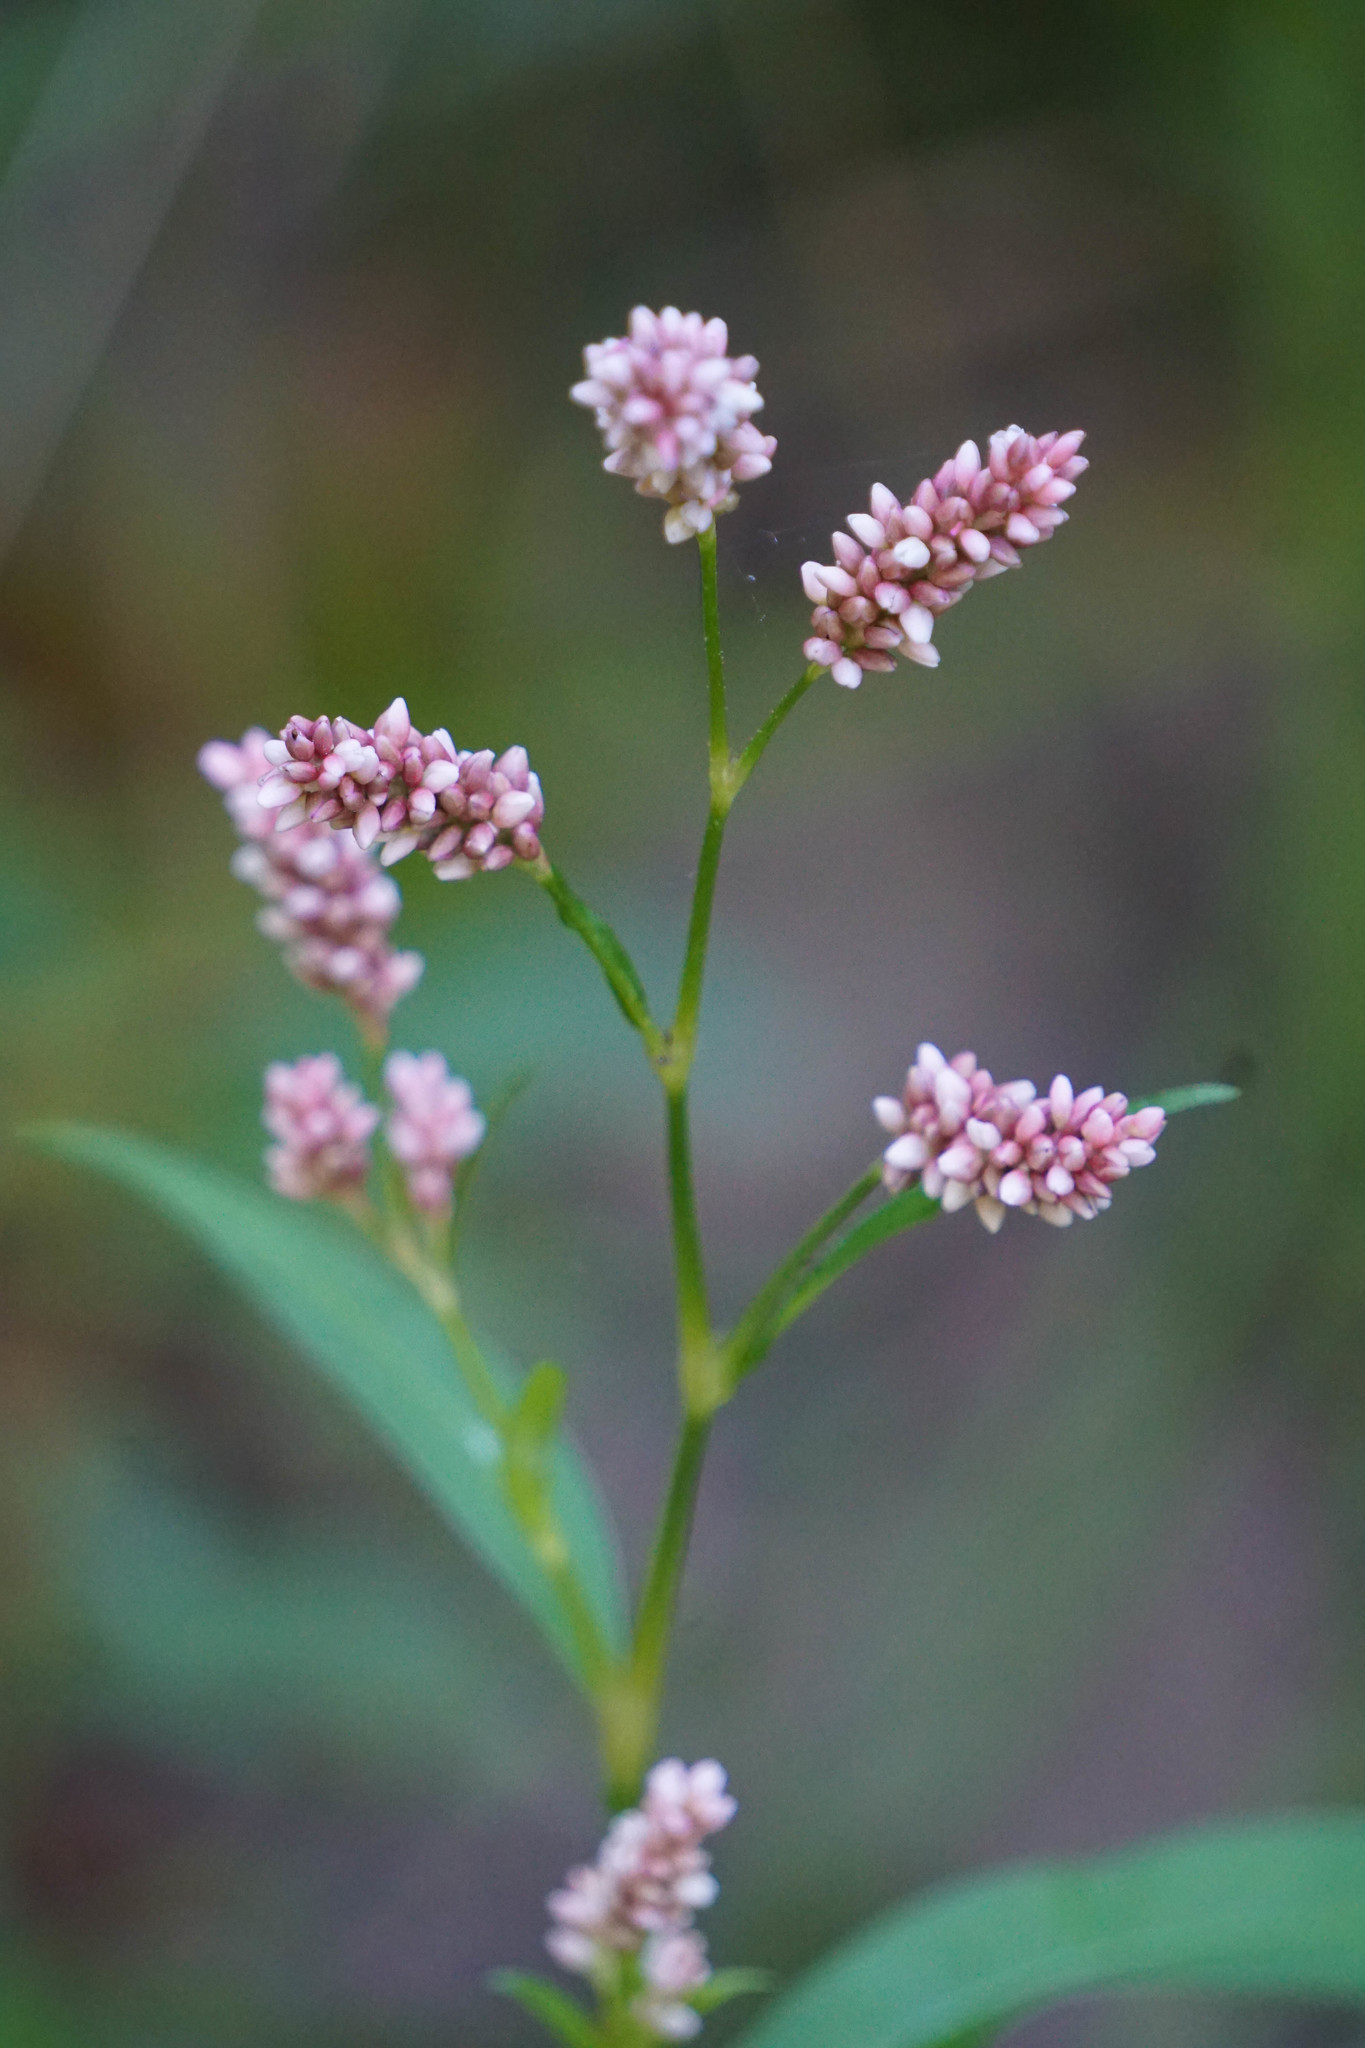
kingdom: Plantae
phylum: Tracheophyta
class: Magnoliopsida
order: Caryophyllales
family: Polygonaceae
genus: Persicaria
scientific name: Persicaria maculosa
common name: Redshank
